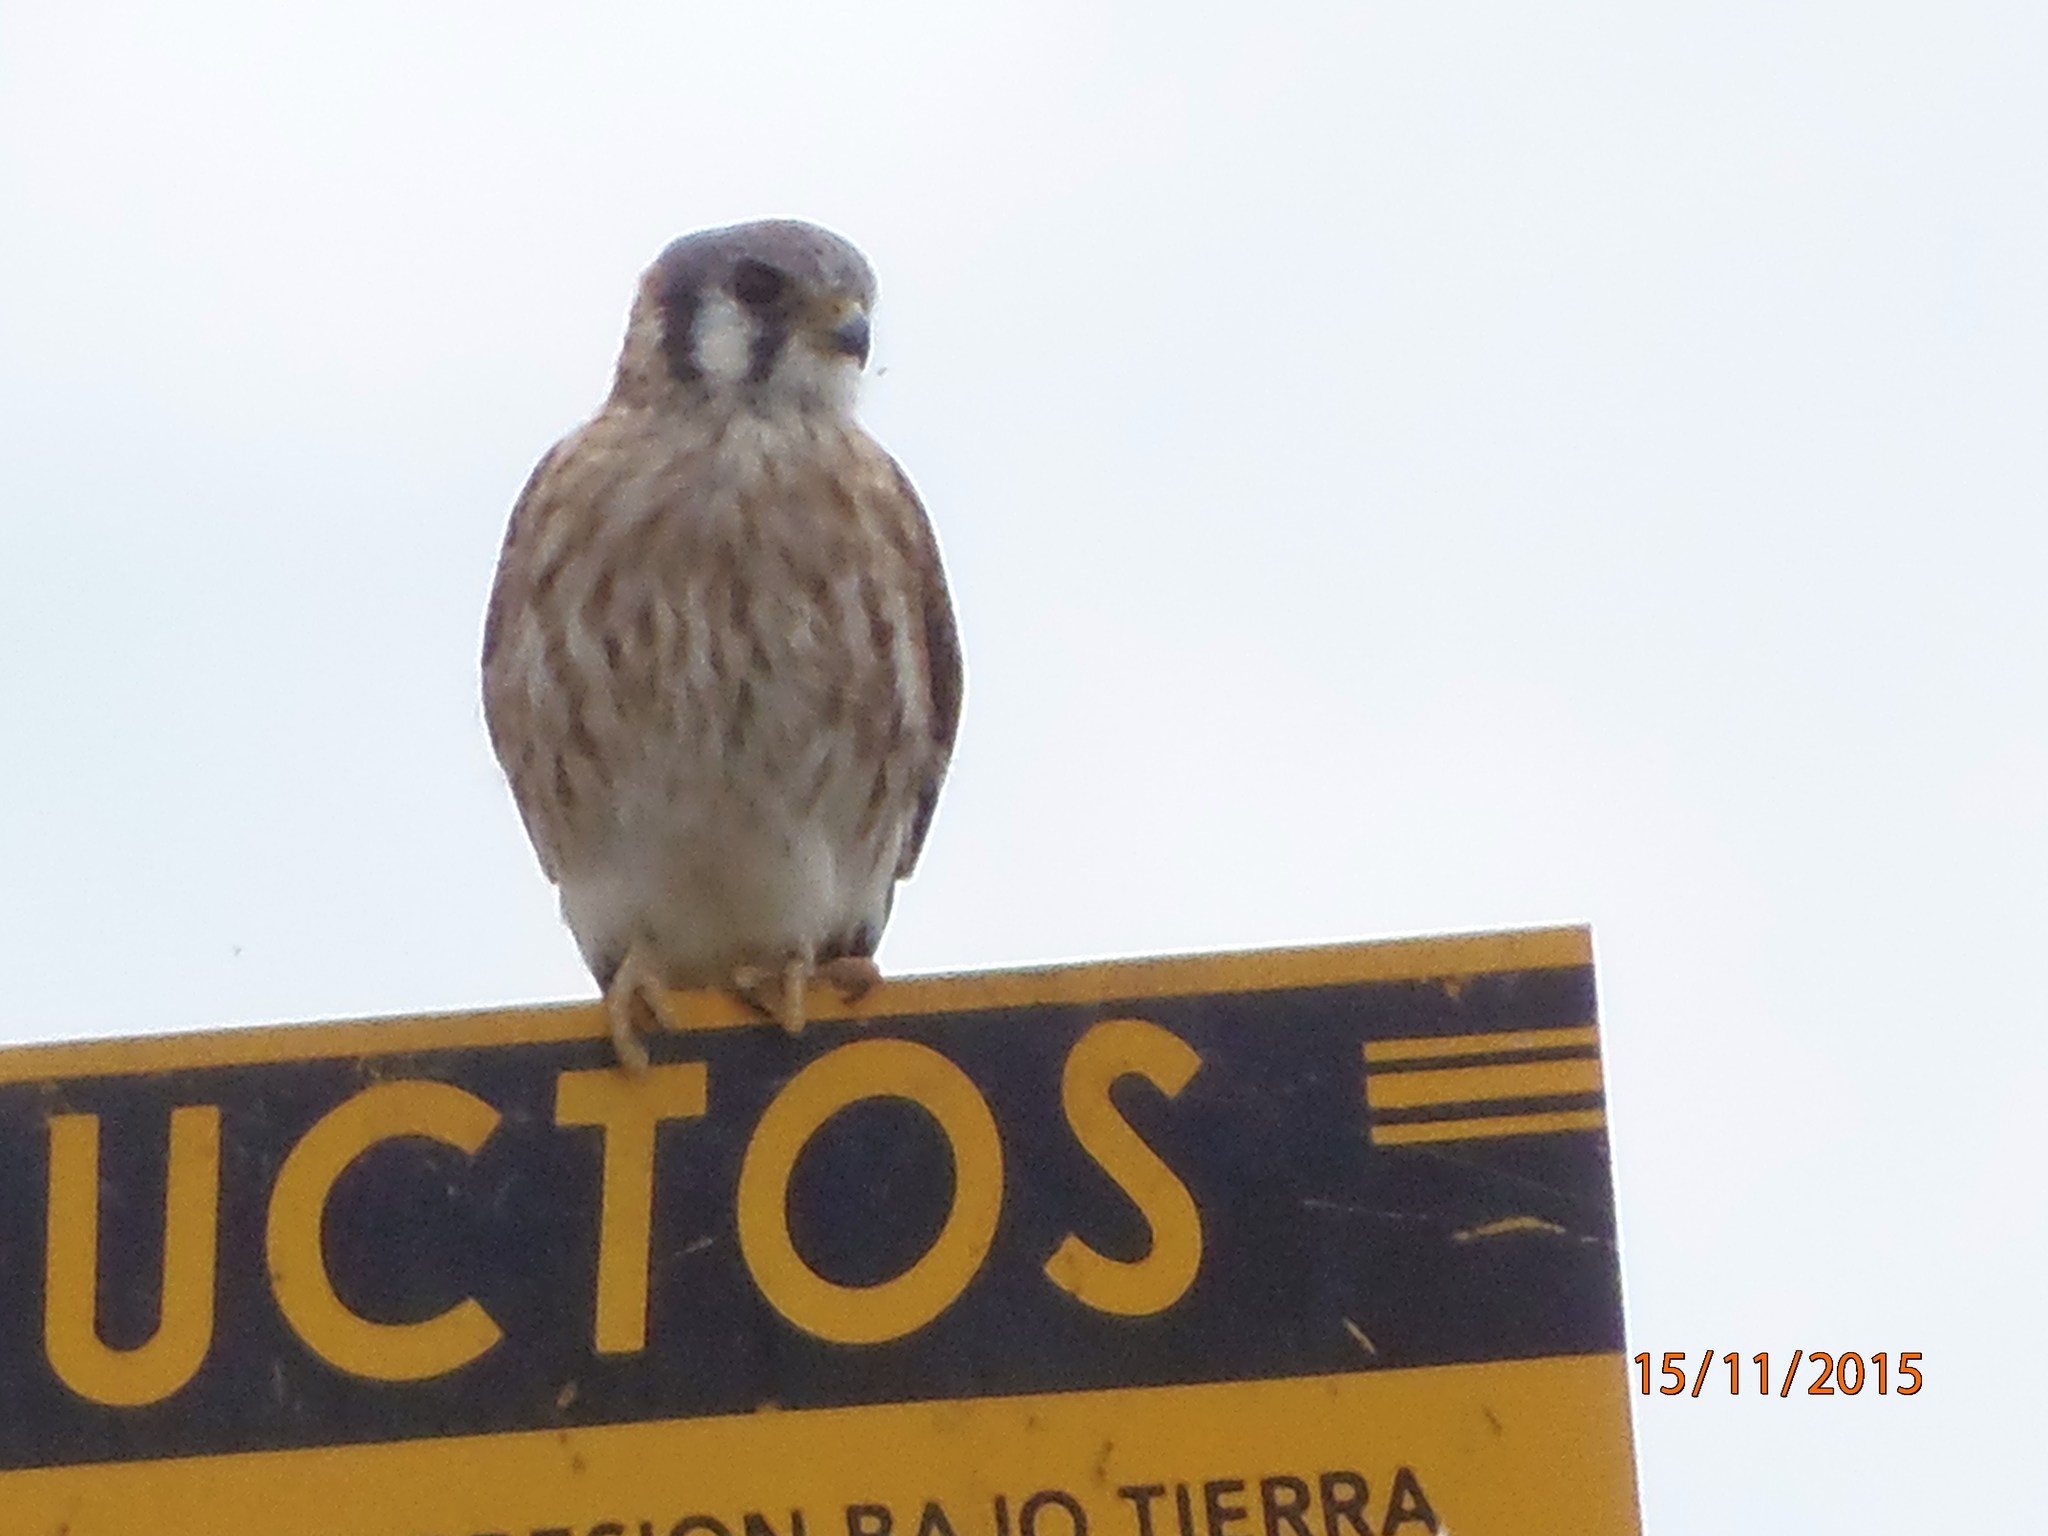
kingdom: Animalia
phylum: Chordata
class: Aves
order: Falconiformes
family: Falconidae
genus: Falco
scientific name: Falco sparverius
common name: American kestrel
